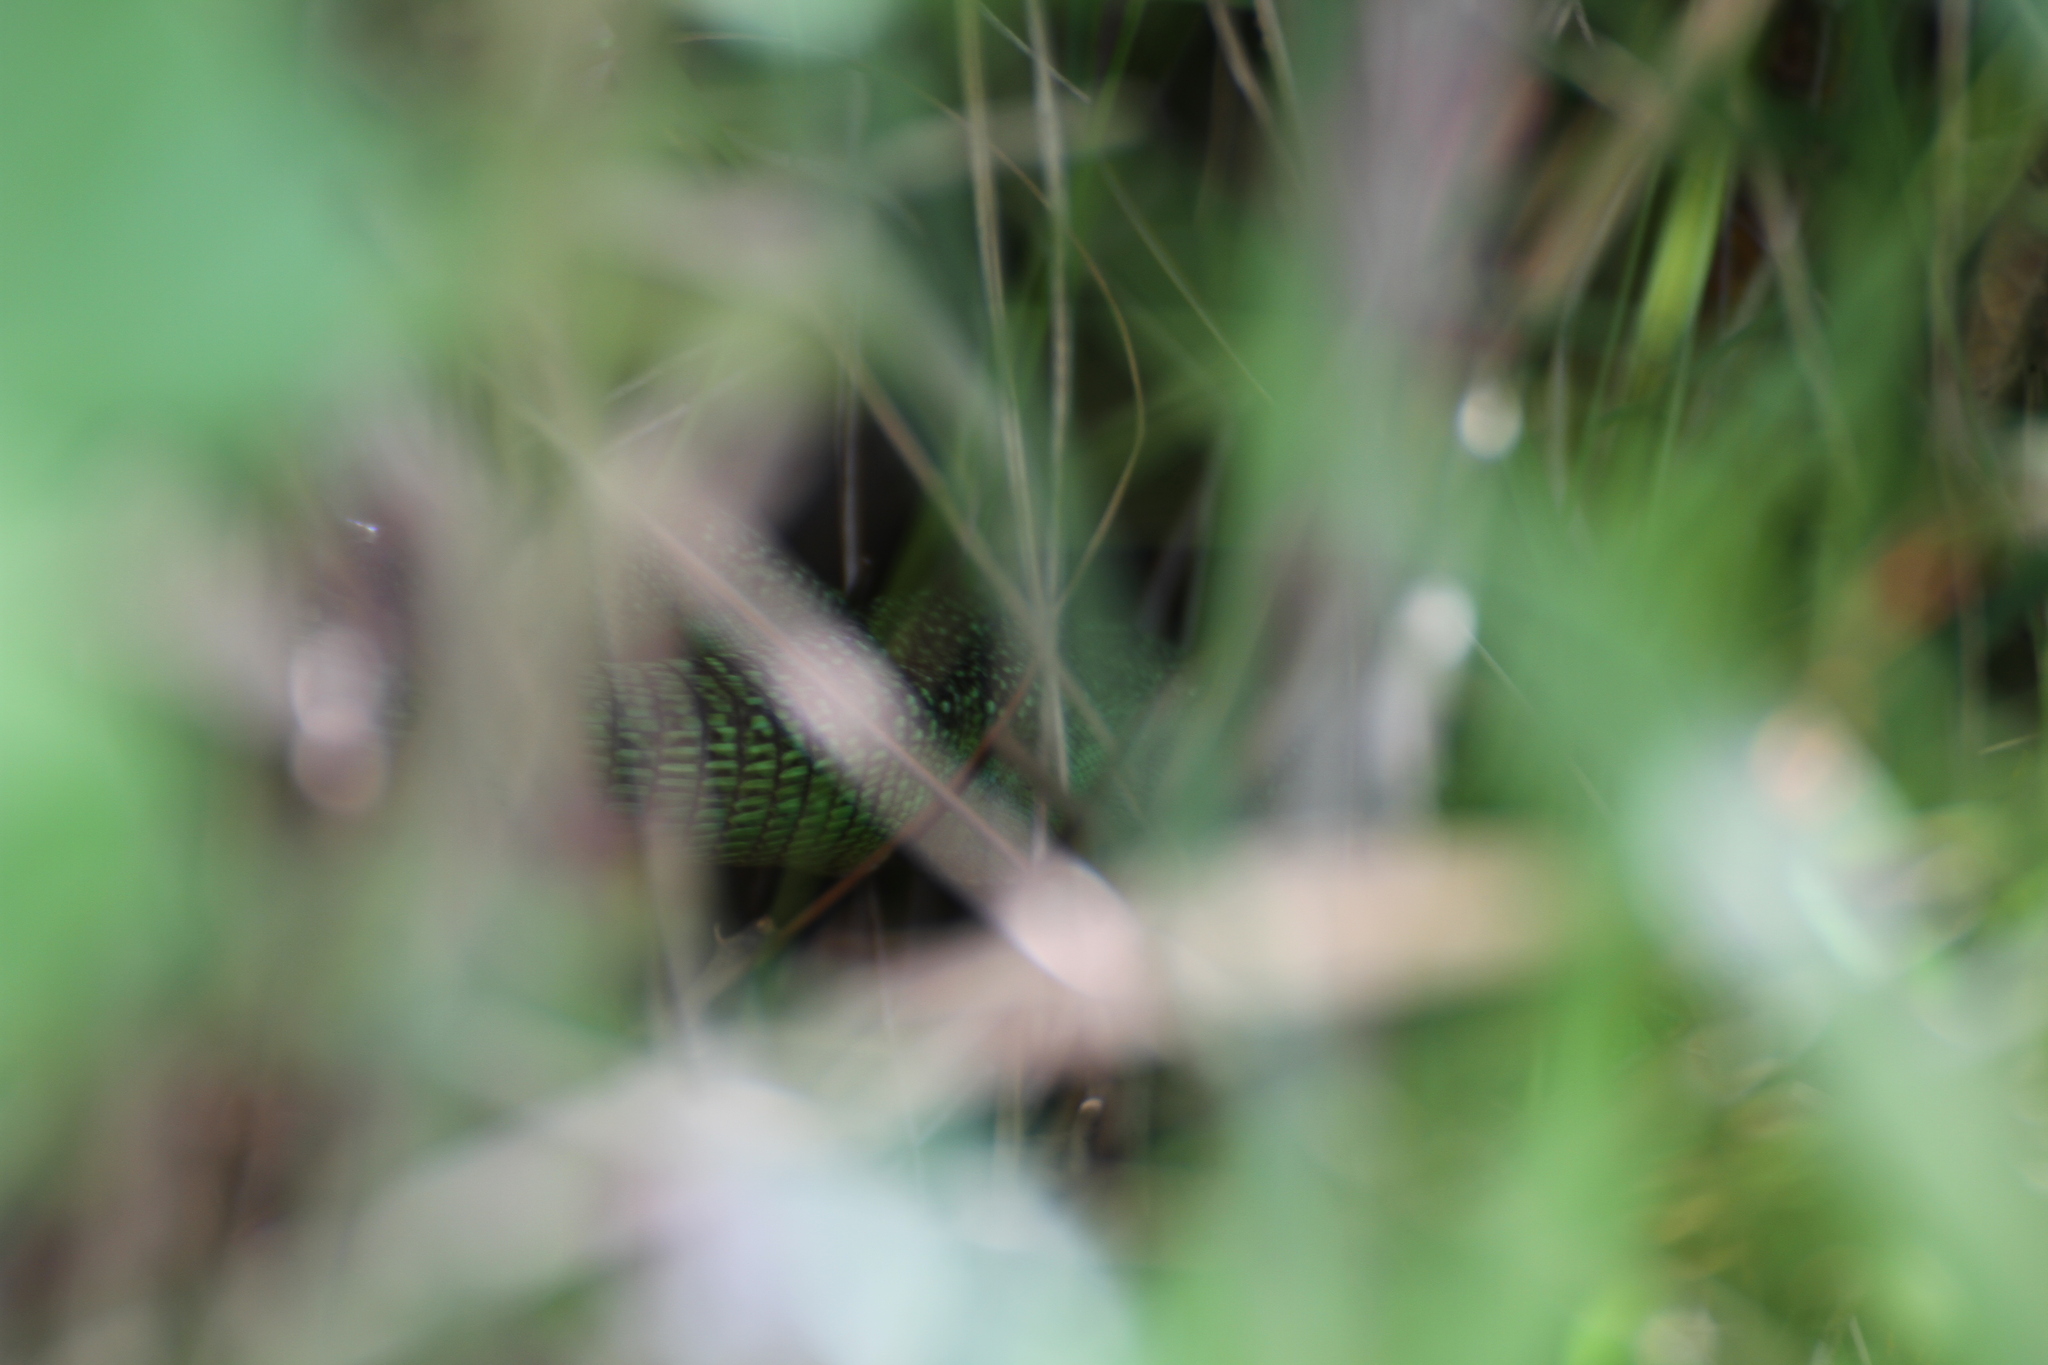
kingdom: Animalia
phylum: Chordata
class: Squamata
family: Lacertidae
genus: Lacerta
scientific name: Lacerta bilineata
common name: Western green lizard
